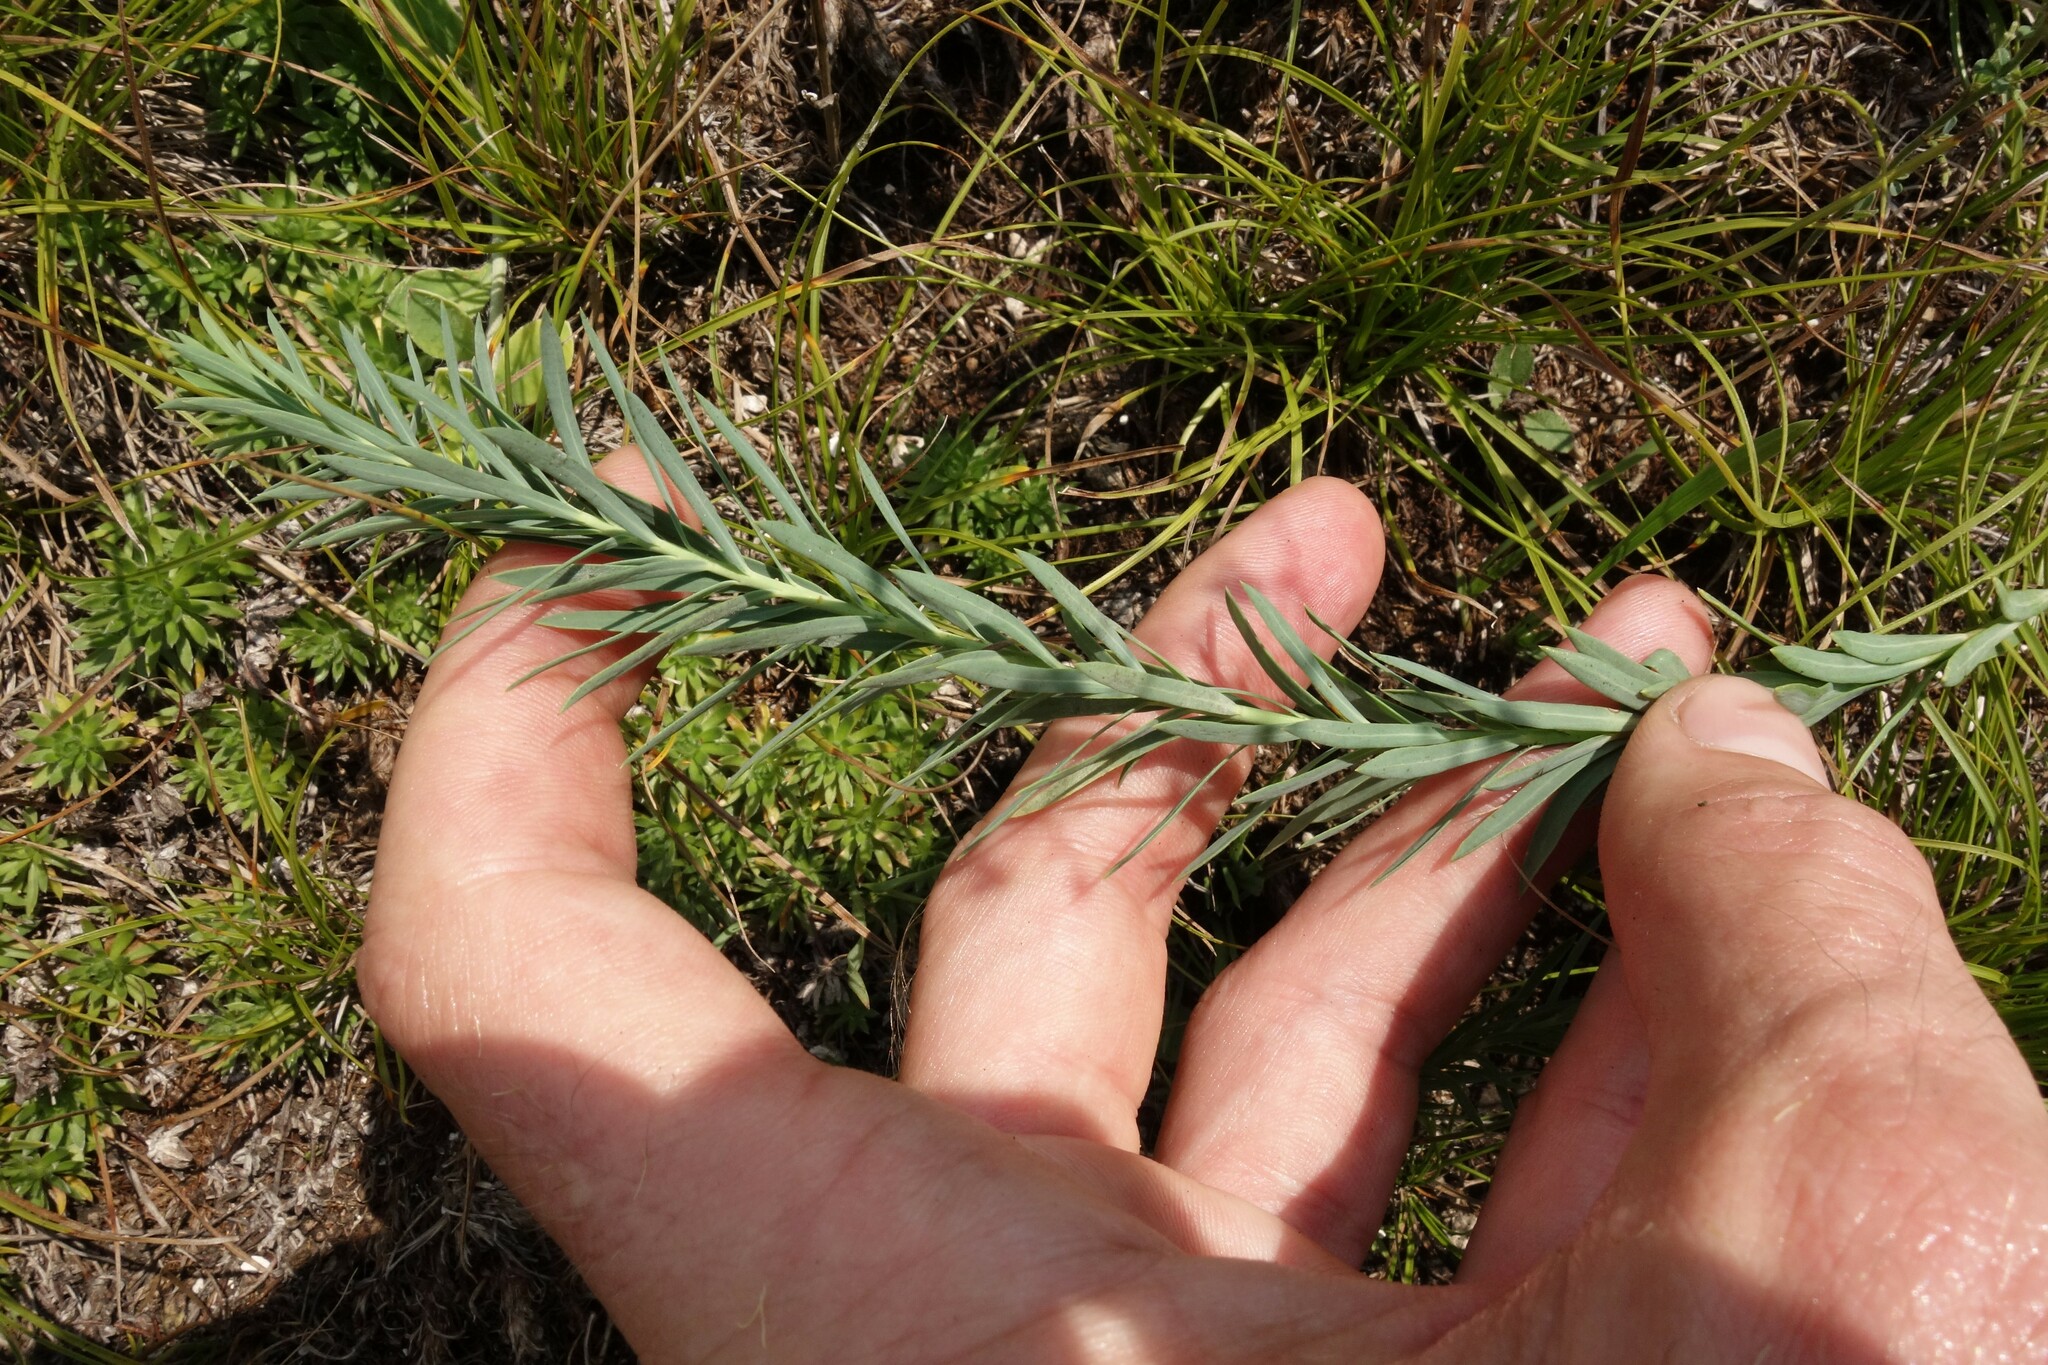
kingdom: Plantae
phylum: Tracheophyta
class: Magnoliopsida
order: Malpighiales
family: Euphorbiaceae
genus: Euphorbia
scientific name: Euphorbia seguieriana
